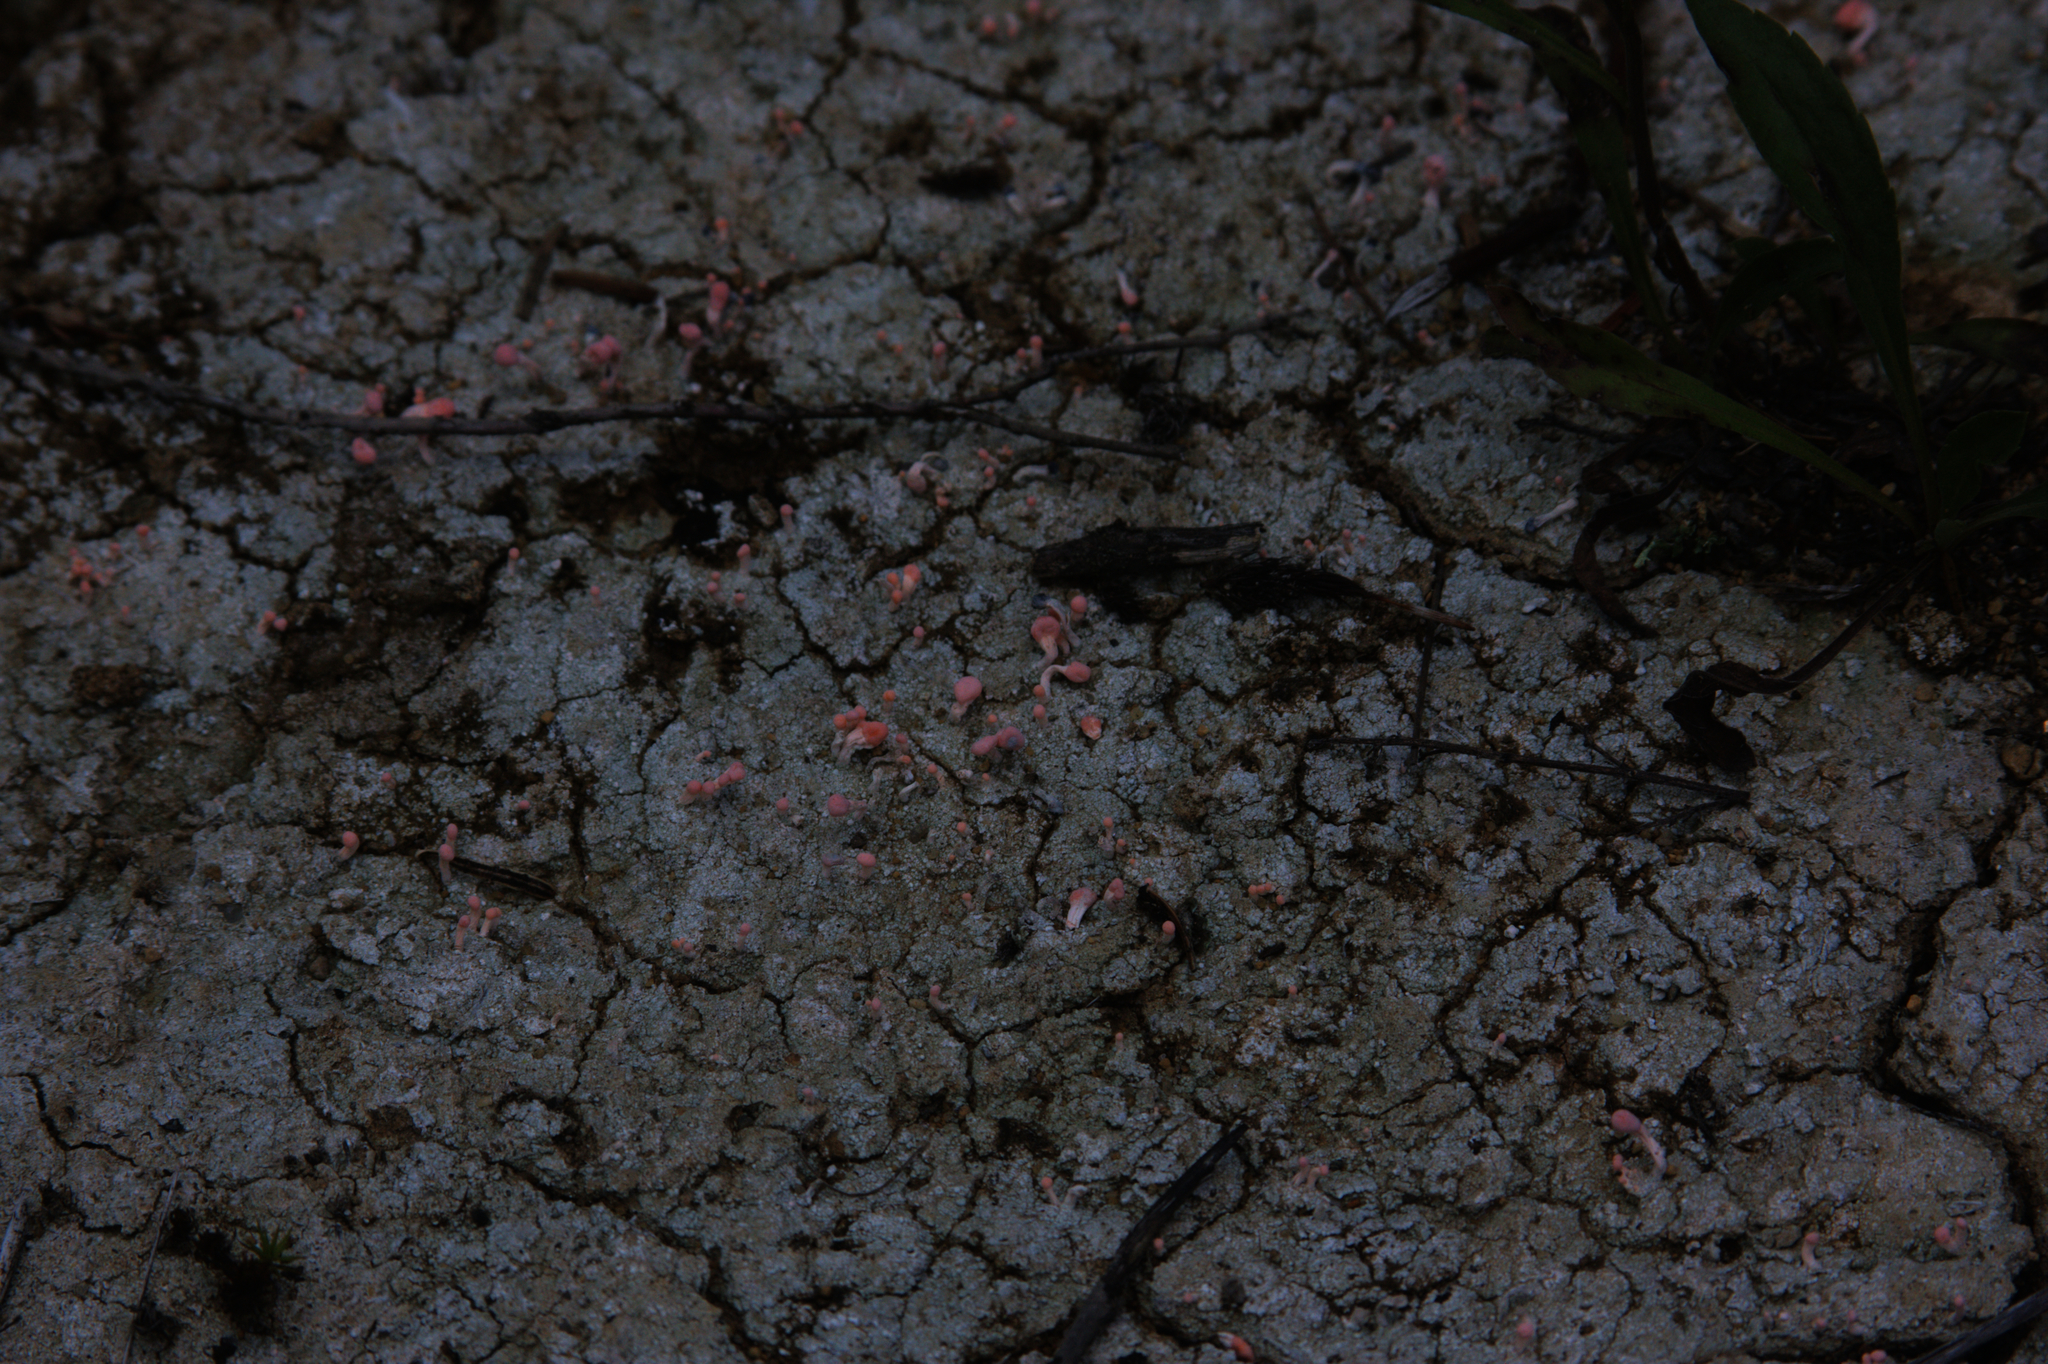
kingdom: Fungi
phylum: Ascomycota
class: Lecanoromycetes
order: Pertusariales
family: Icmadophilaceae
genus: Dibaeis
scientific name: Dibaeis baeomyces
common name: Pink earth lichen
